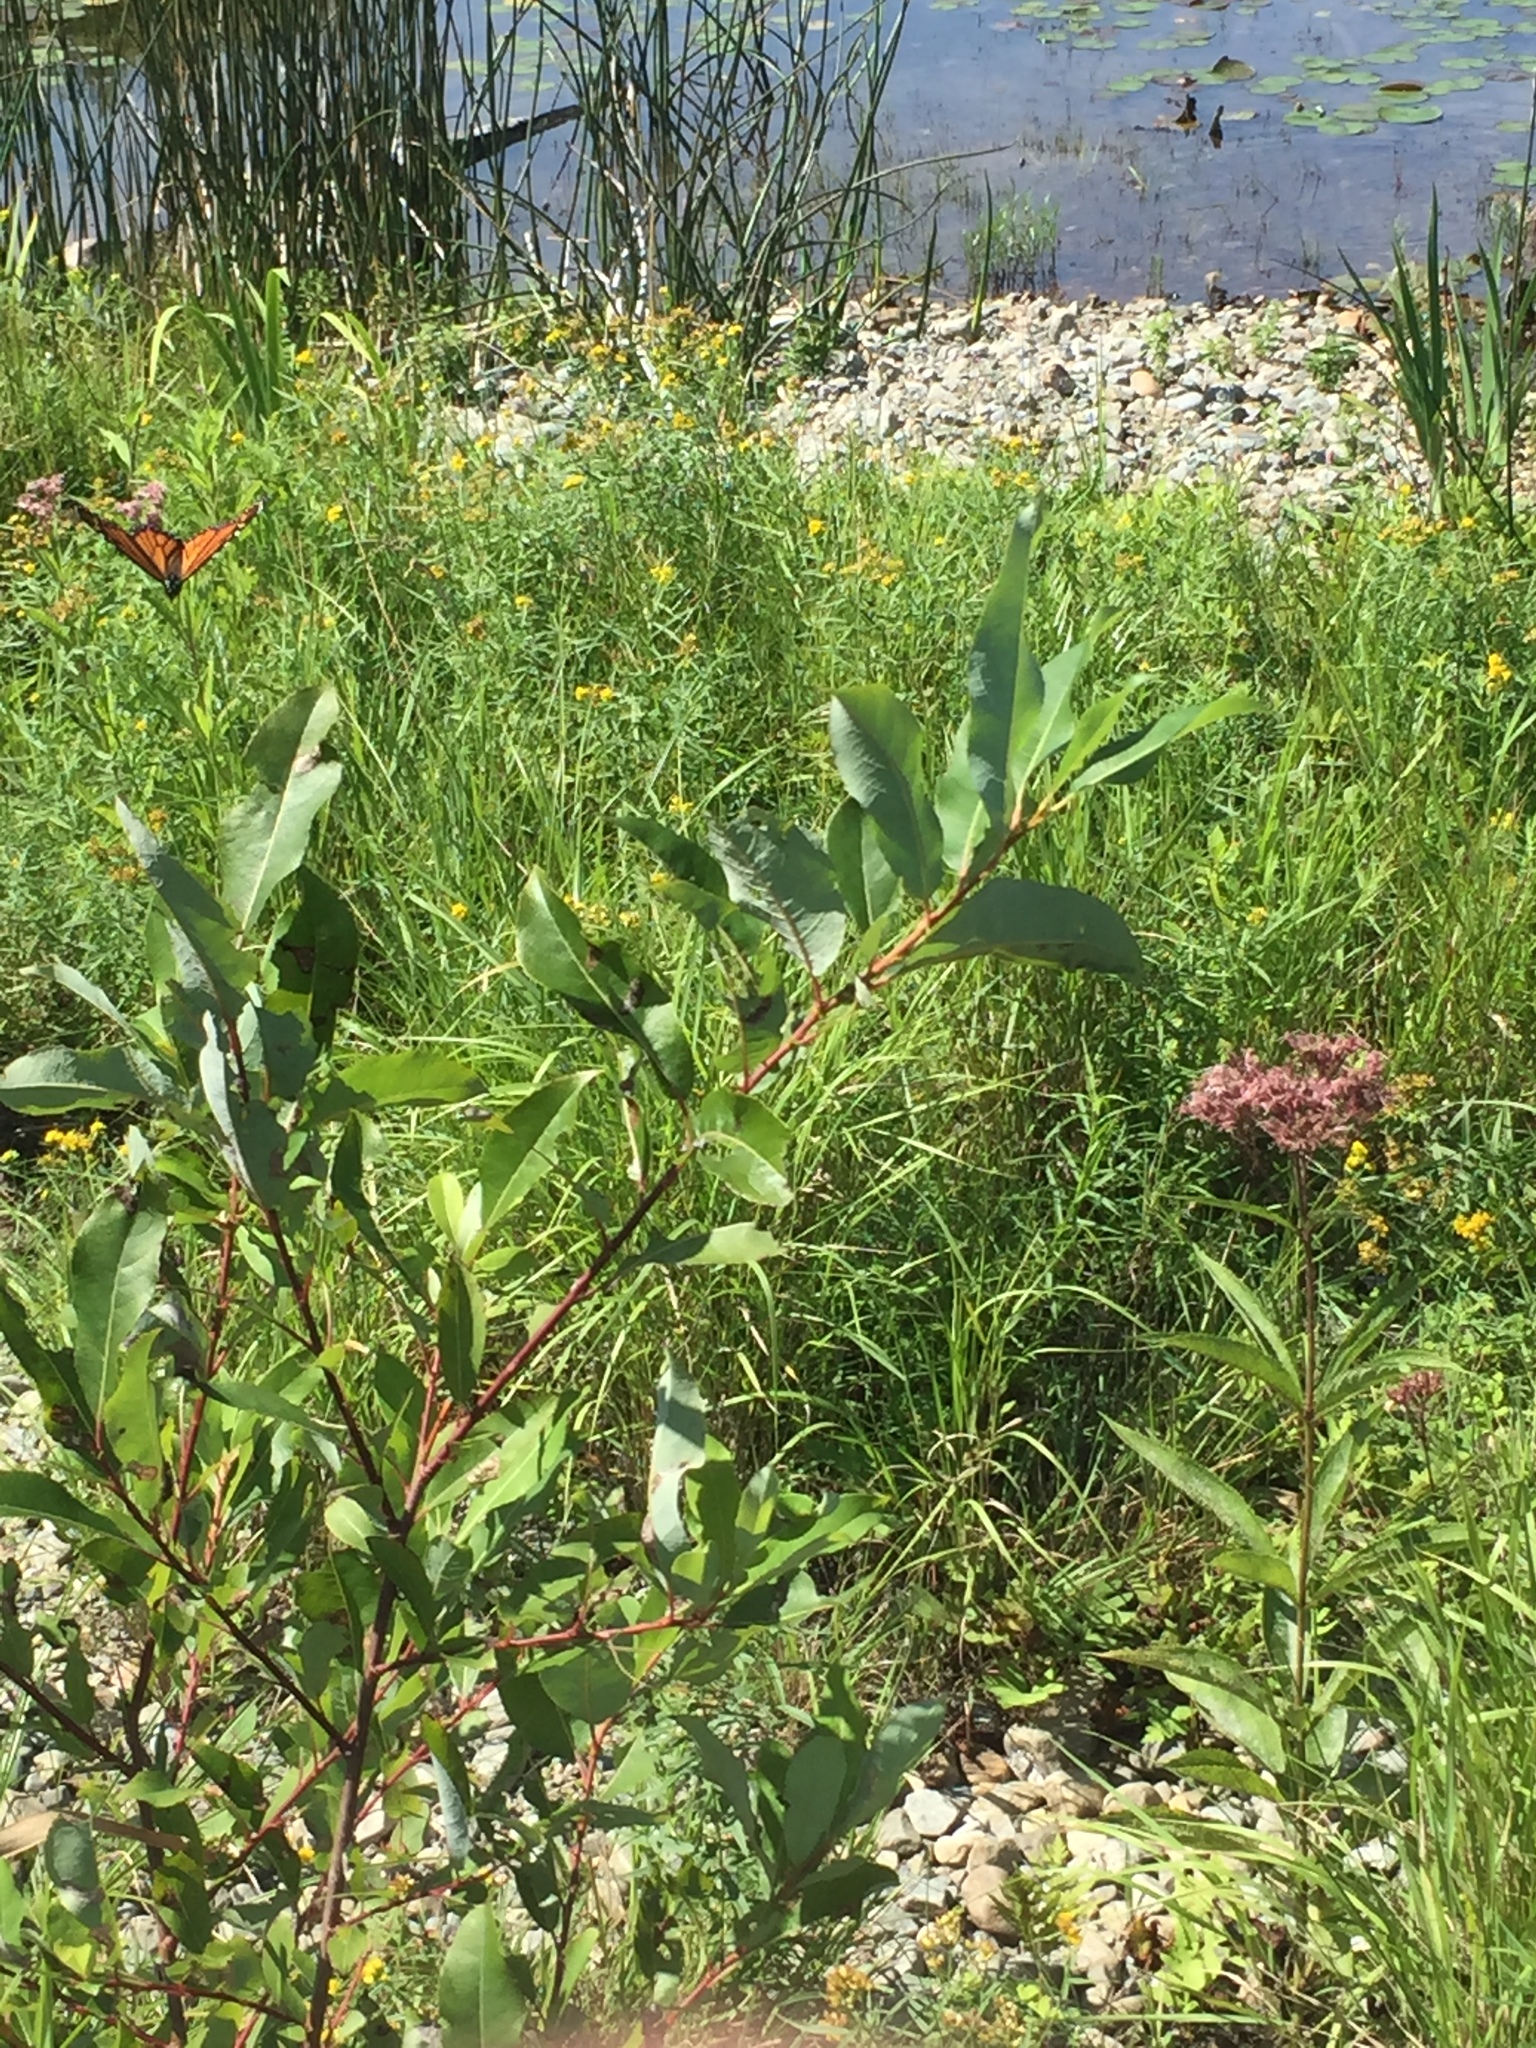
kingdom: Animalia
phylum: Arthropoda
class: Insecta
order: Lepidoptera
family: Nymphalidae
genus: Danaus
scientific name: Danaus plexippus
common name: Monarch
